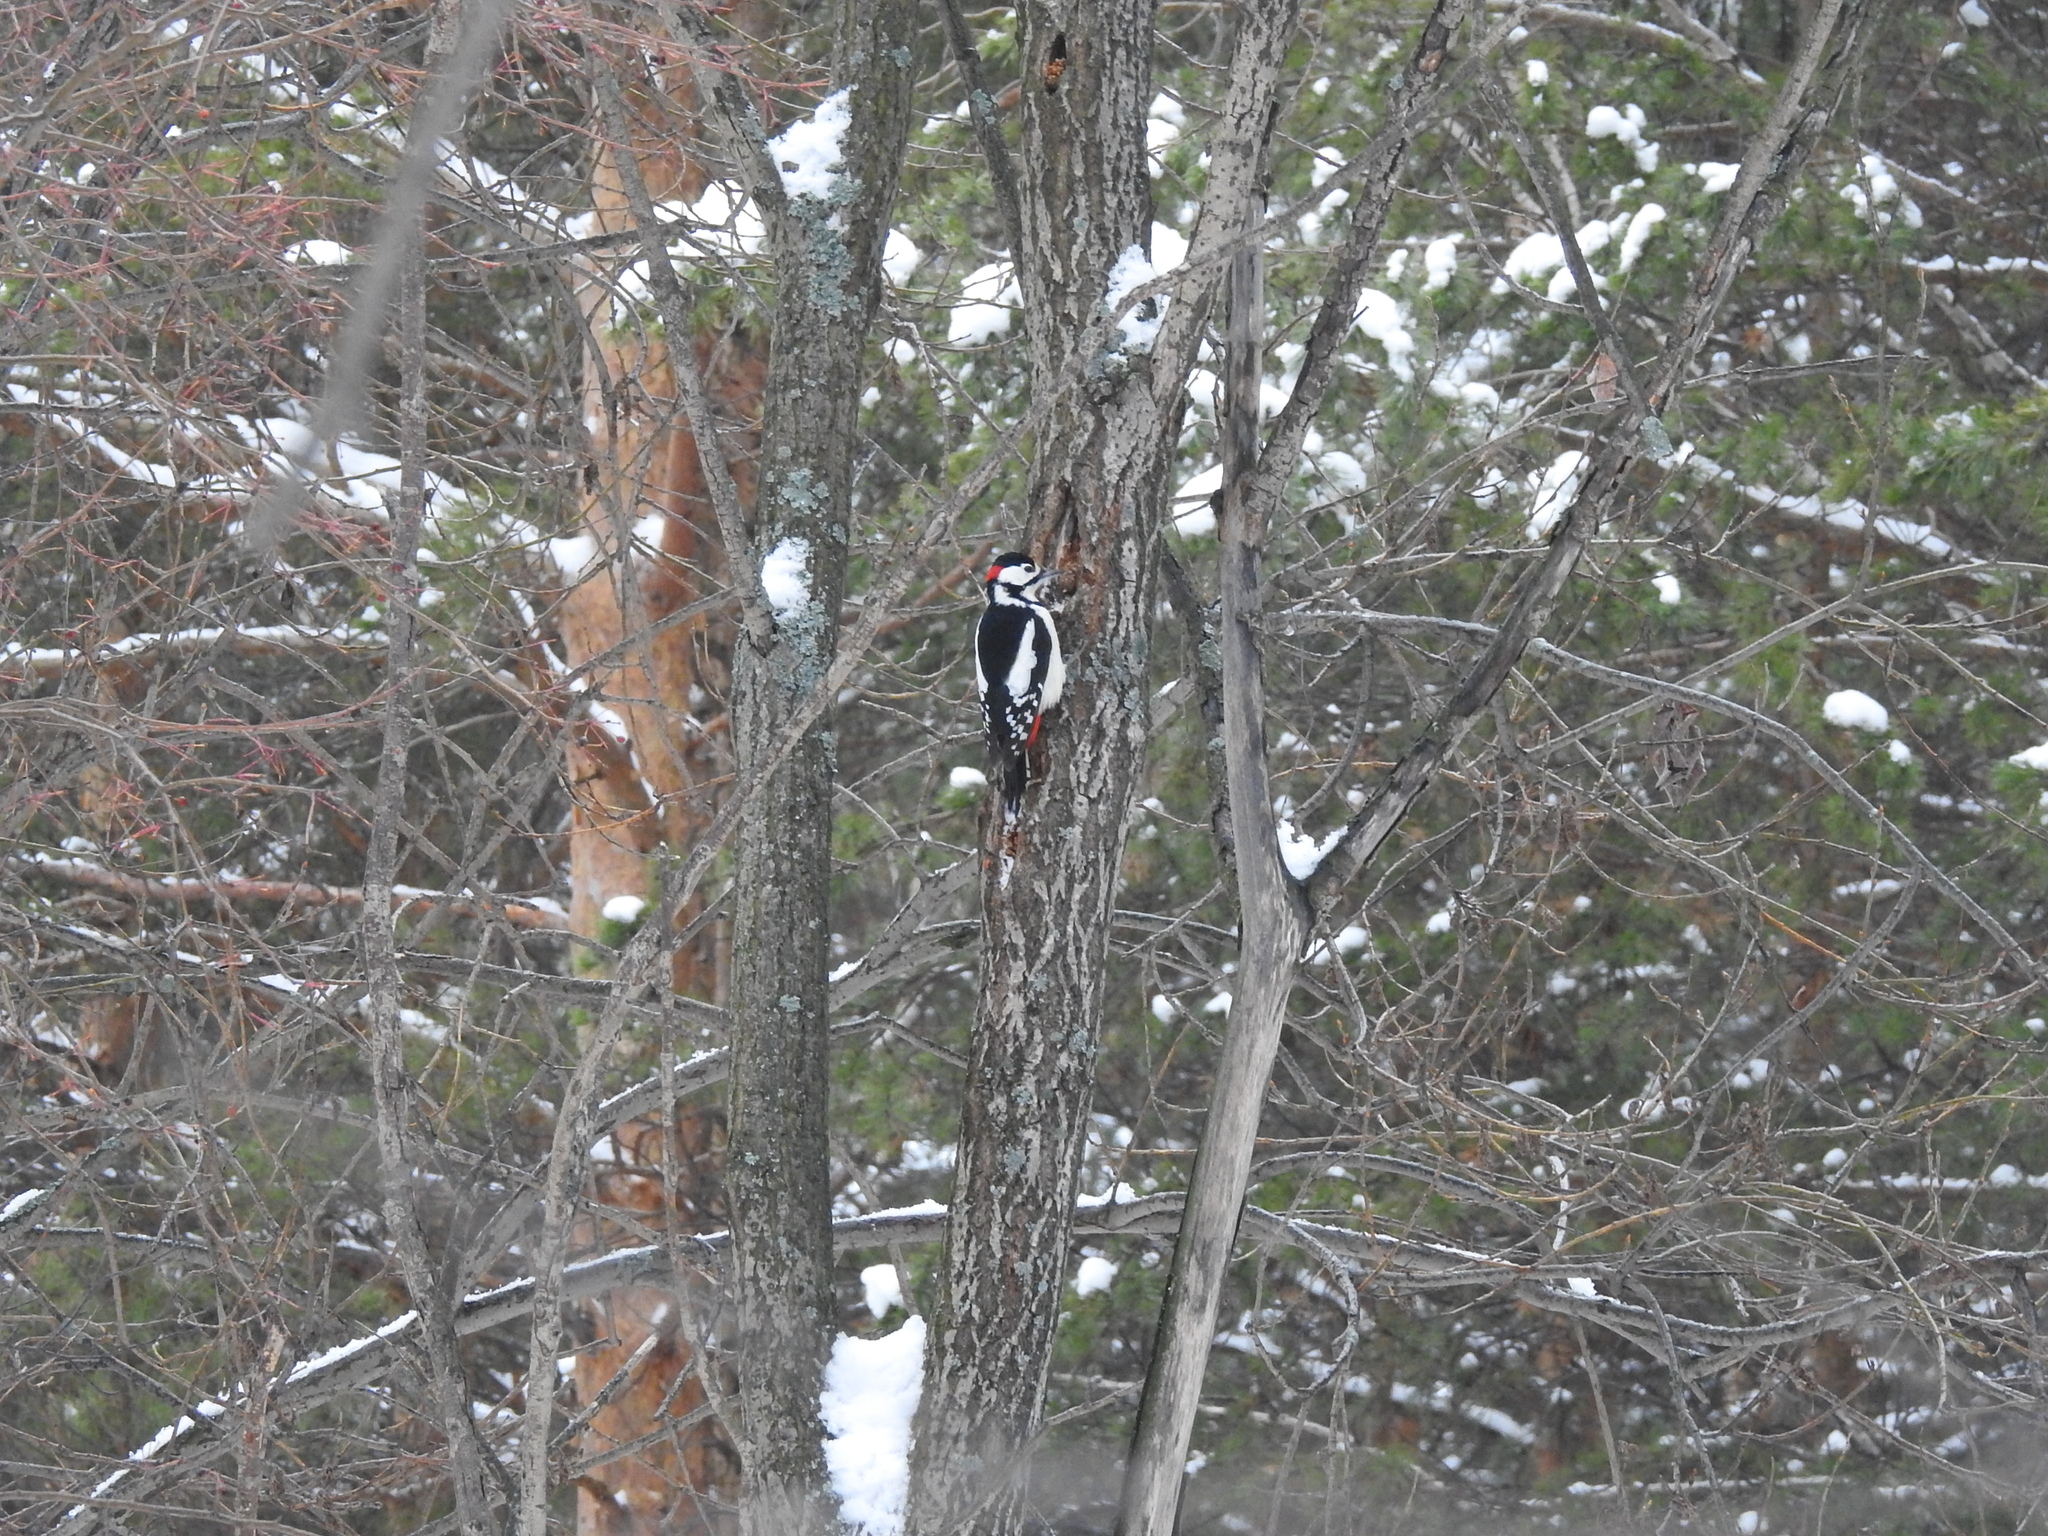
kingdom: Animalia
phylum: Chordata
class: Aves
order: Piciformes
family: Picidae
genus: Dendrocopos
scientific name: Dendrocopos major
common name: Great spotted woodpecker
